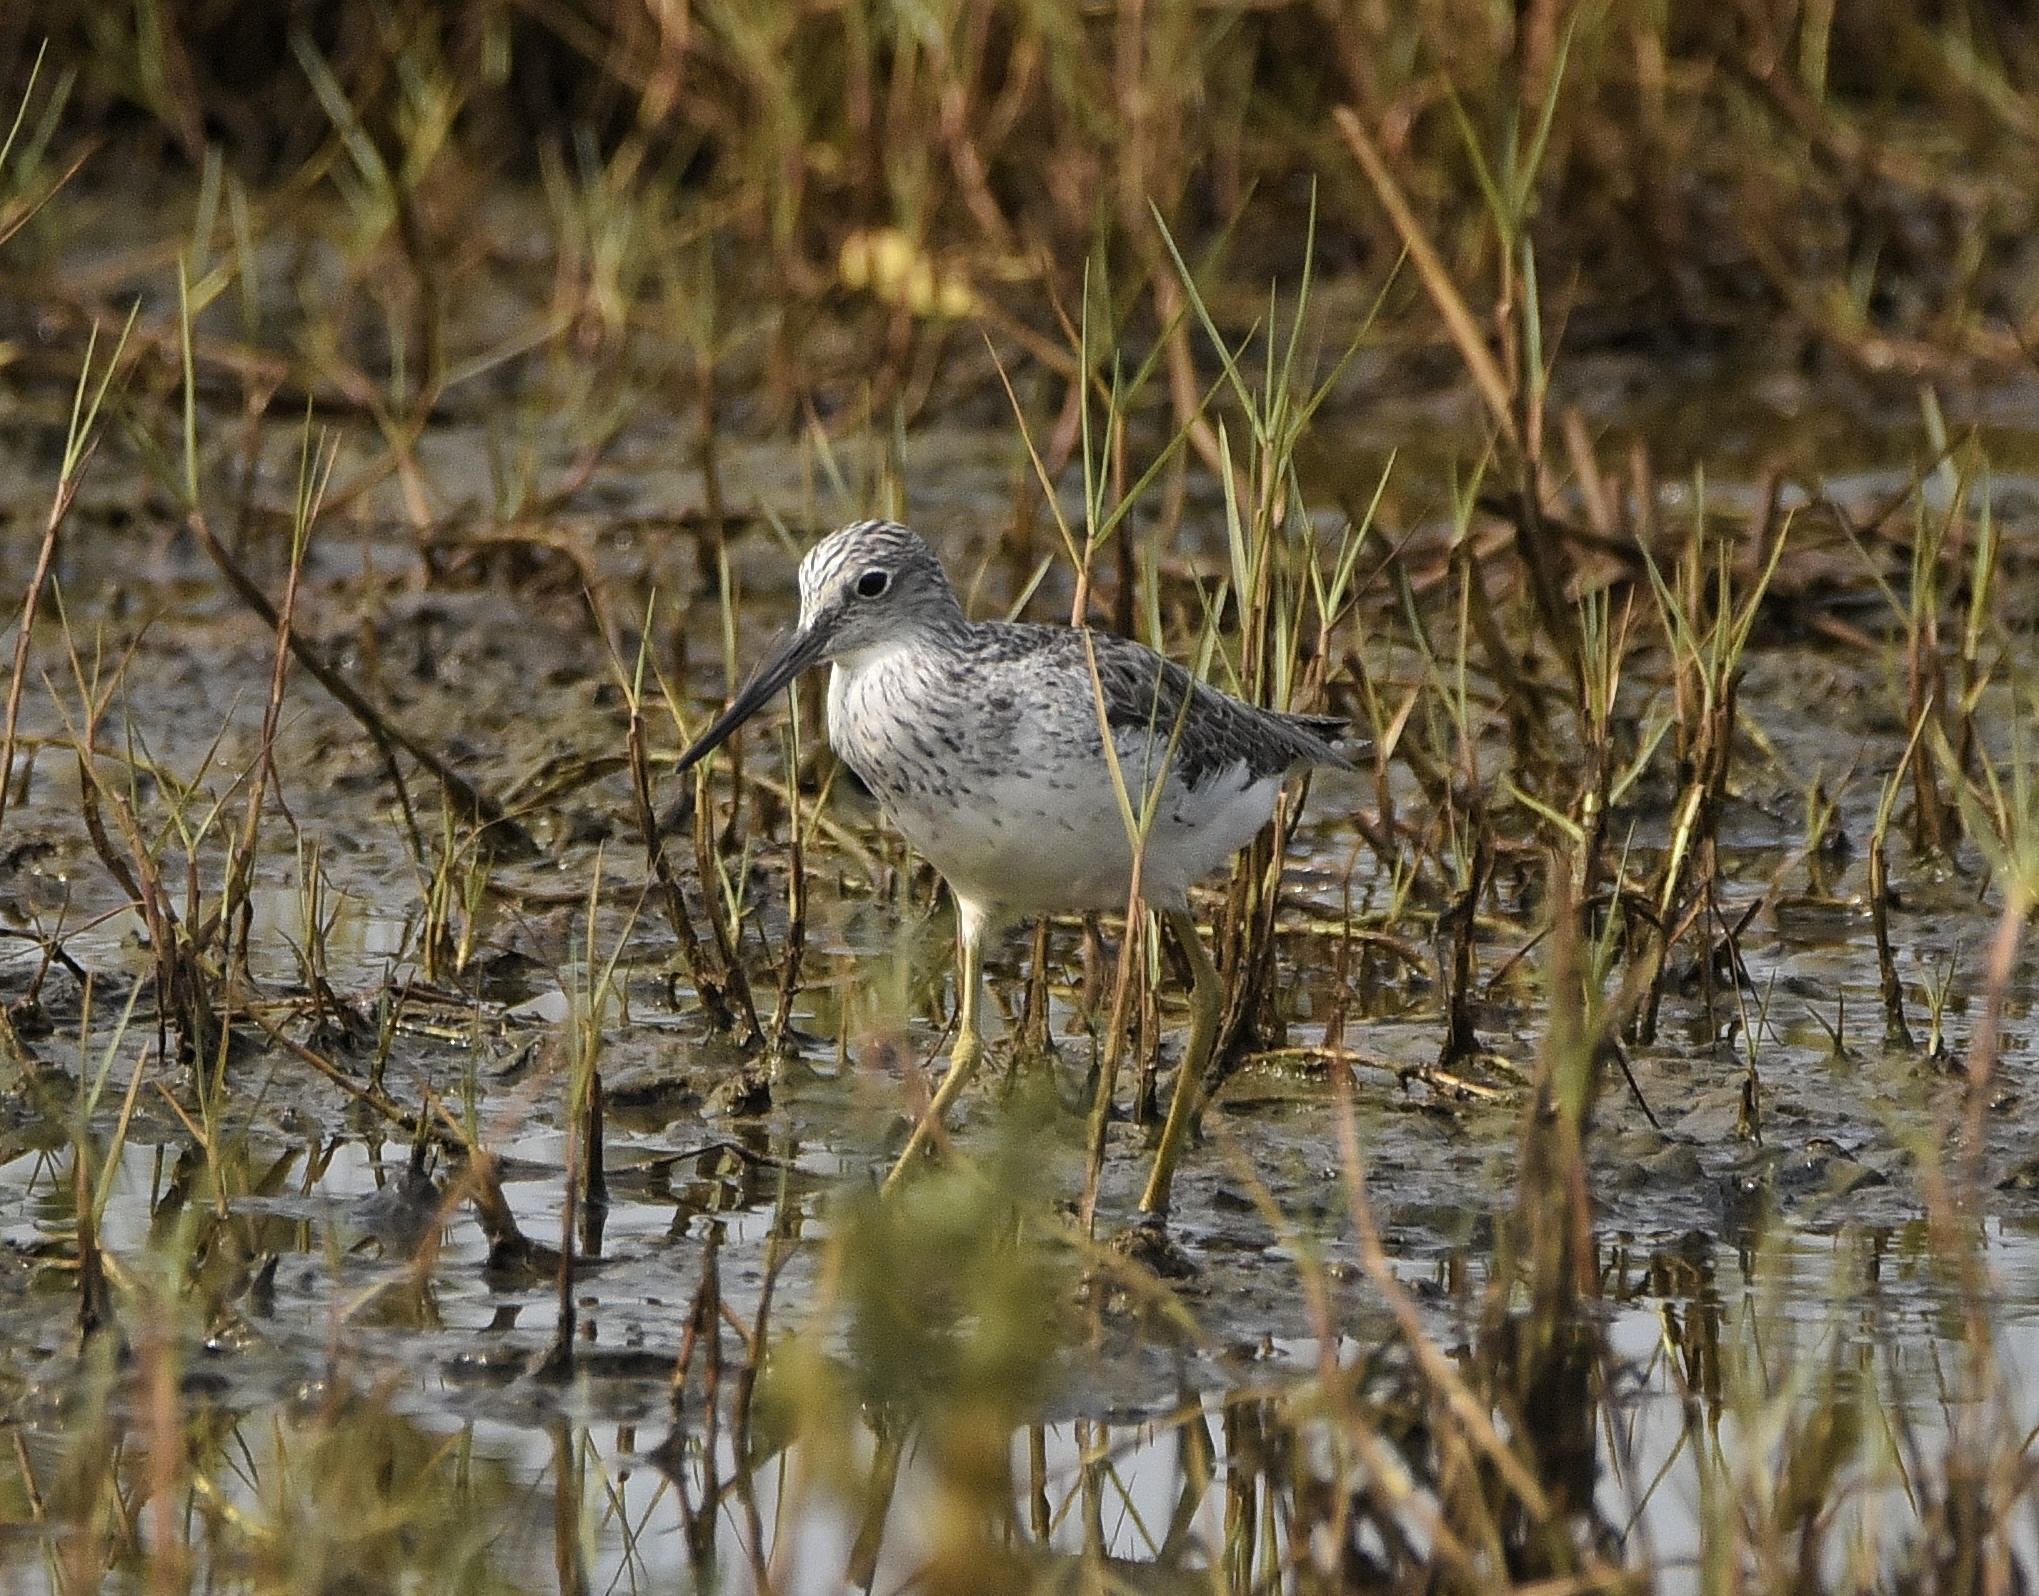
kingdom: Animalia
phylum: Chordata
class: Aves
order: Charadriiformes
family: Scolopacidae
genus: Tringa
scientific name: Tringa nebularia
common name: Common greenshank
